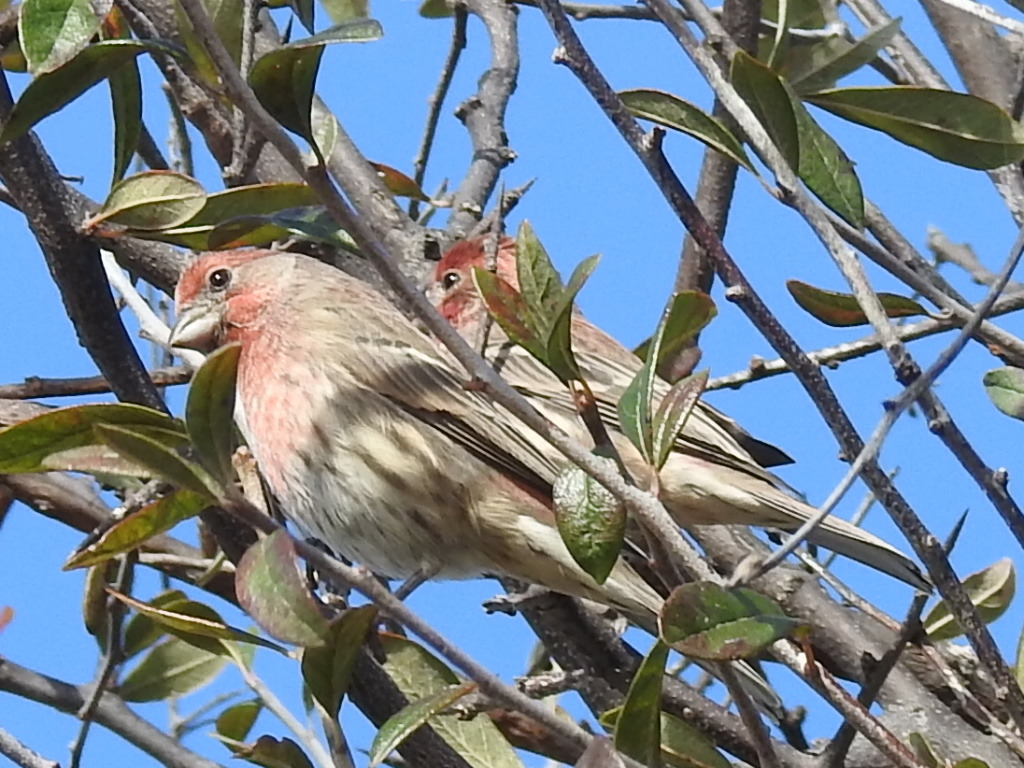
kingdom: Animalia
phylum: Chordata
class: Aves
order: Passeriformes
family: Fringillidae
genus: Haemorhous
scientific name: Haemorhous mexicanus
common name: House finch
